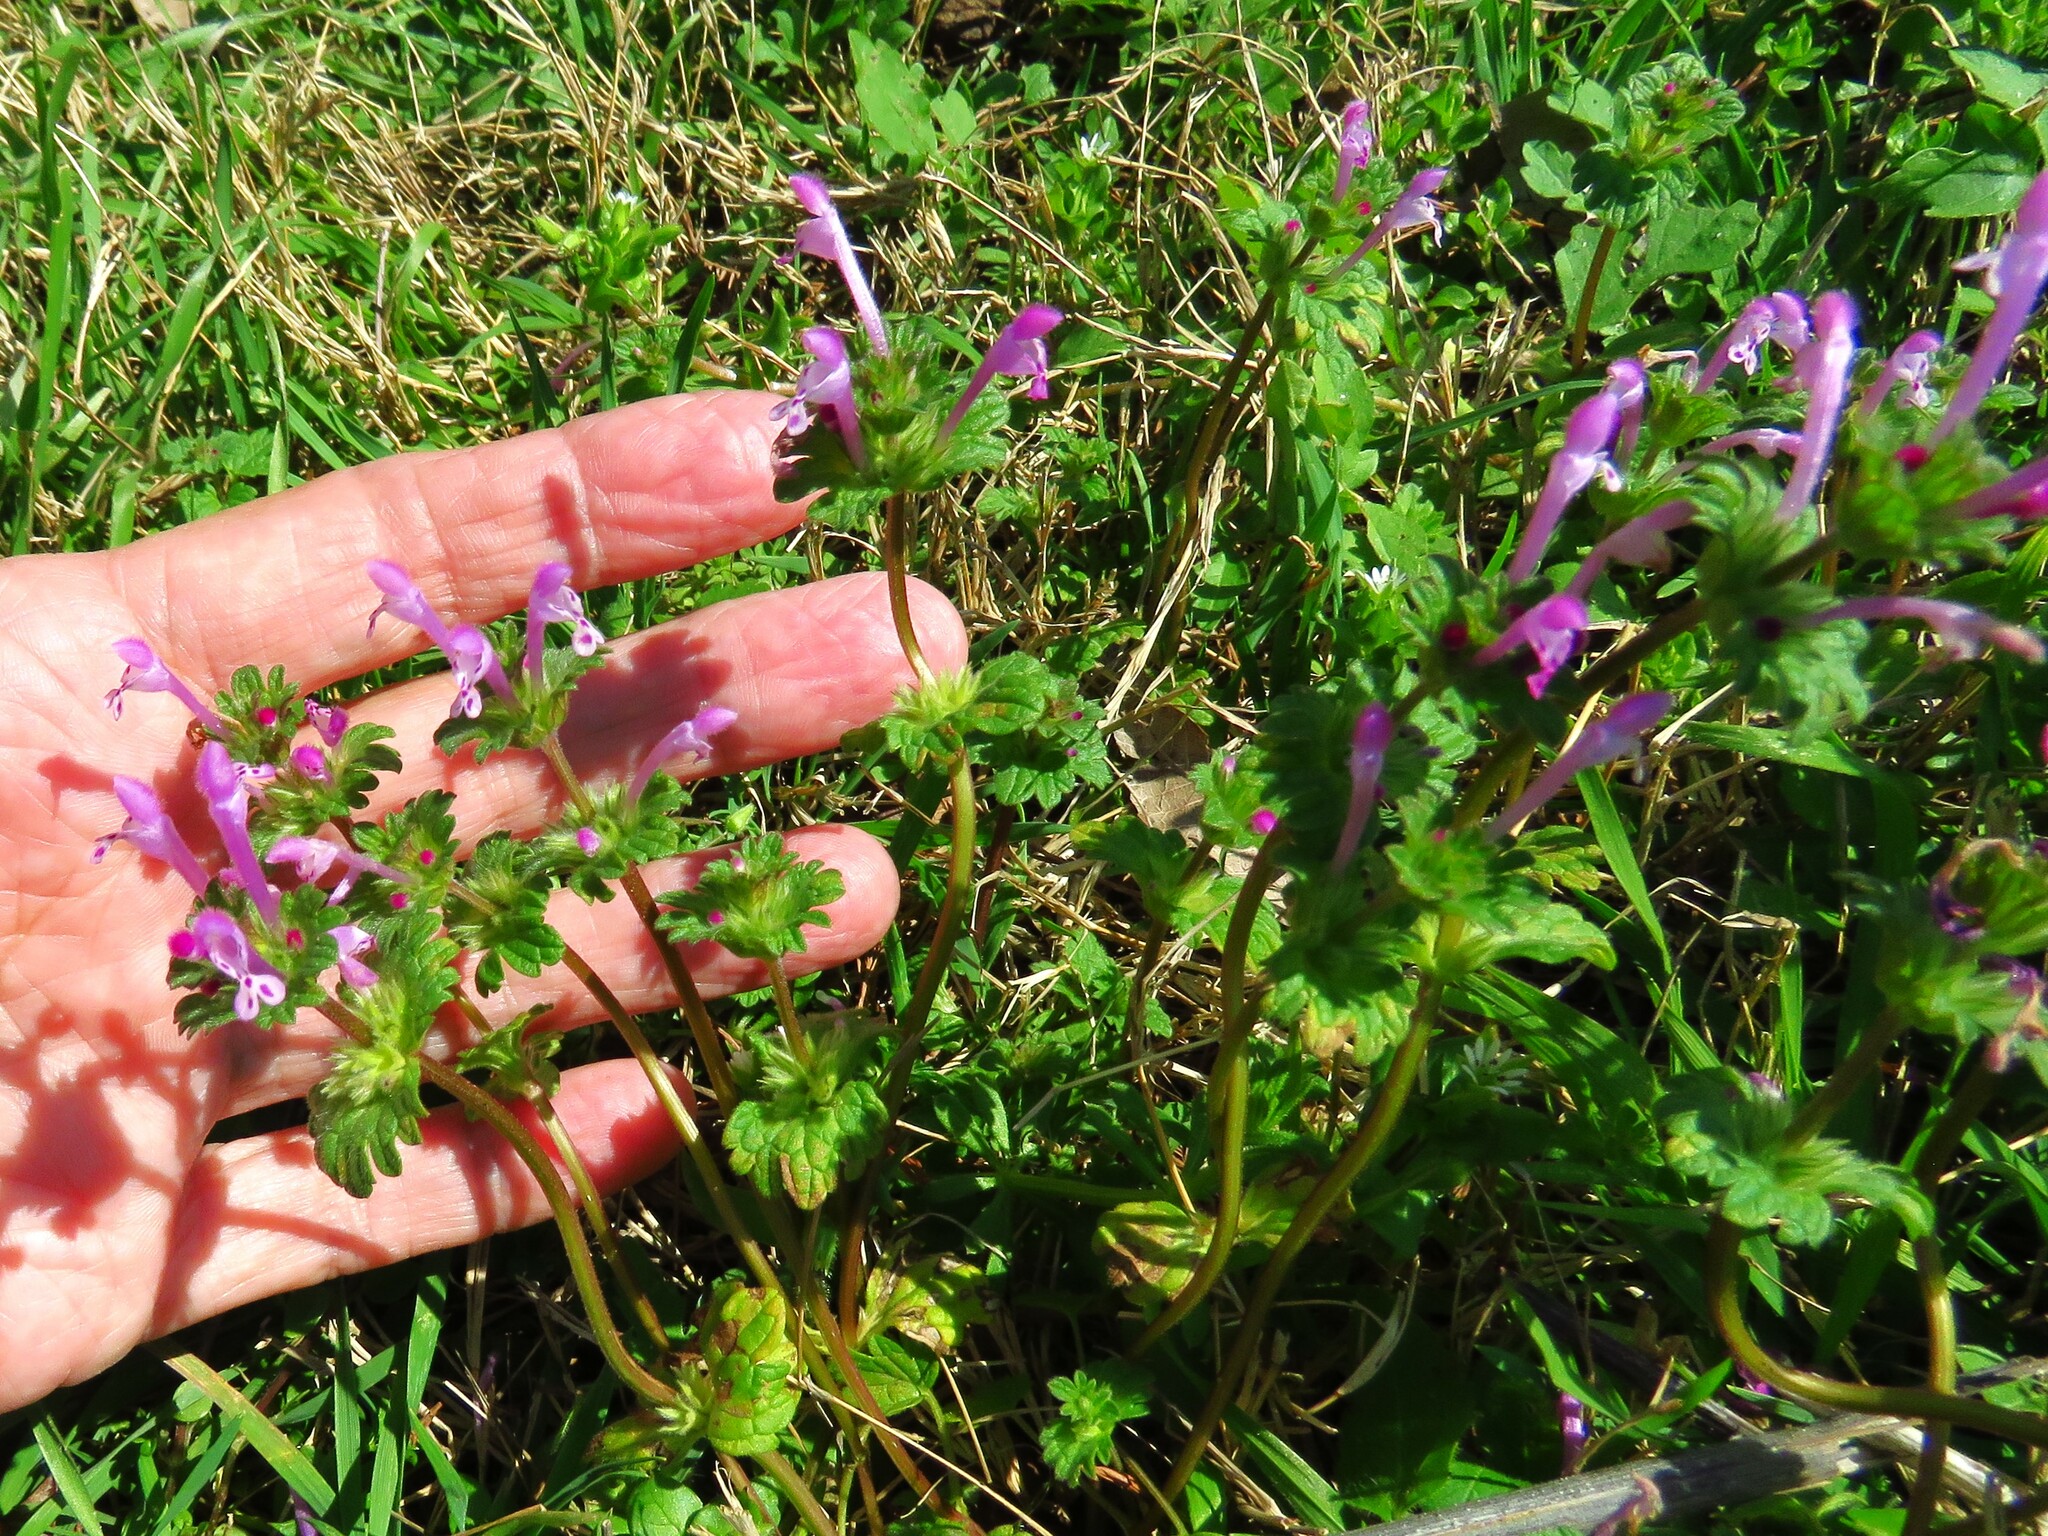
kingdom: Plantae
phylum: Tracheophyta
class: Magnoliopsida
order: Lamiales
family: Lamiaceae
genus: Lamium
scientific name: Lamium amplexicaule
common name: Henbit dead-nettle
